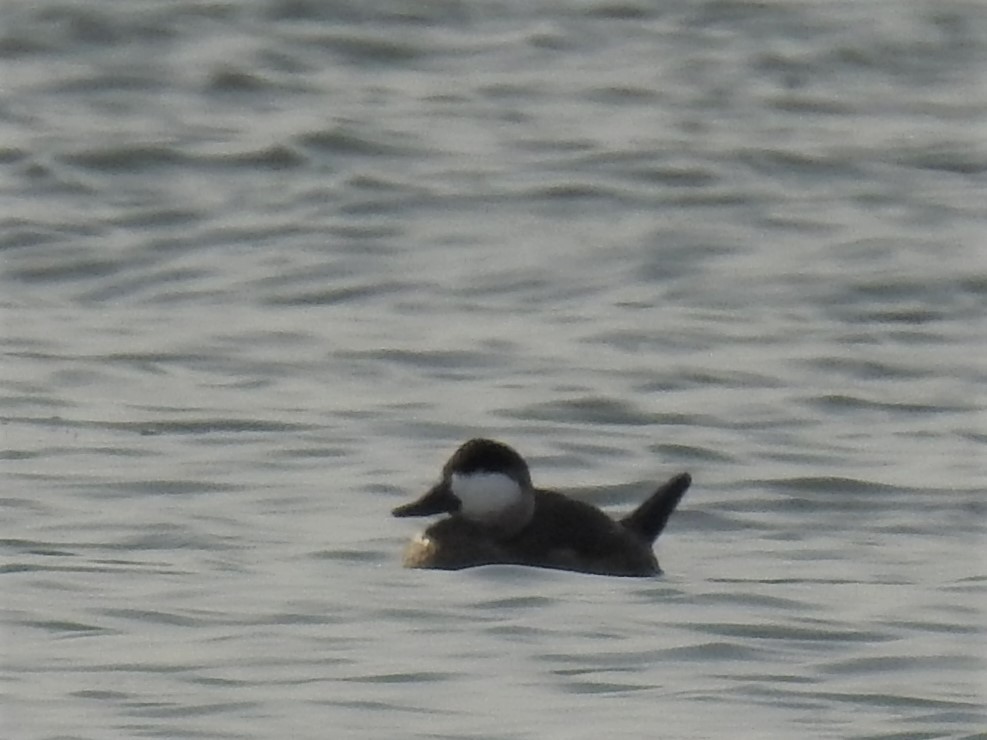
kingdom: Animalia
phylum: Chordata
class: Aves
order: Anseriformes
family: Anatidae
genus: Oxyura
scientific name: Oxyura jamaicensis
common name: Ruddy duck
